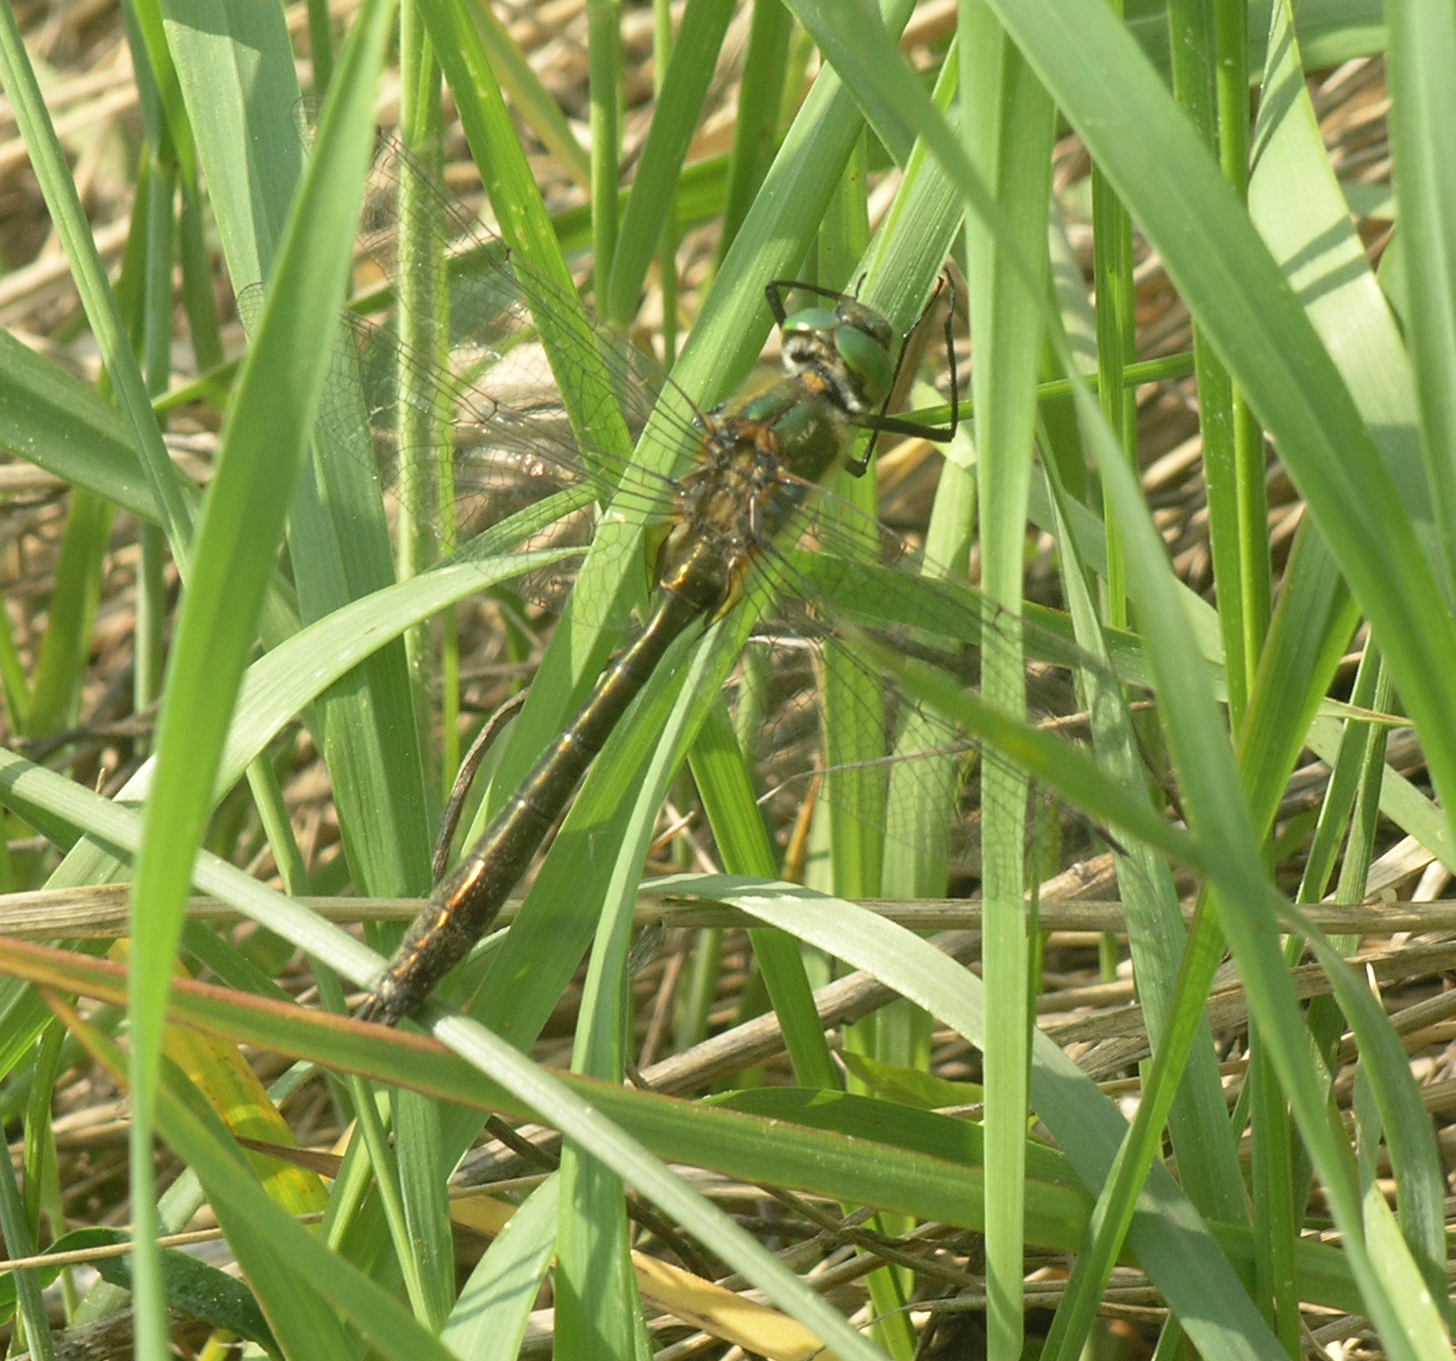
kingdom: Animalia
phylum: Arthropoda
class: Insecta
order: Odonata
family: Corduliidae
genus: Cordulia
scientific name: Cordulia aenea
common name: Downy emerald
